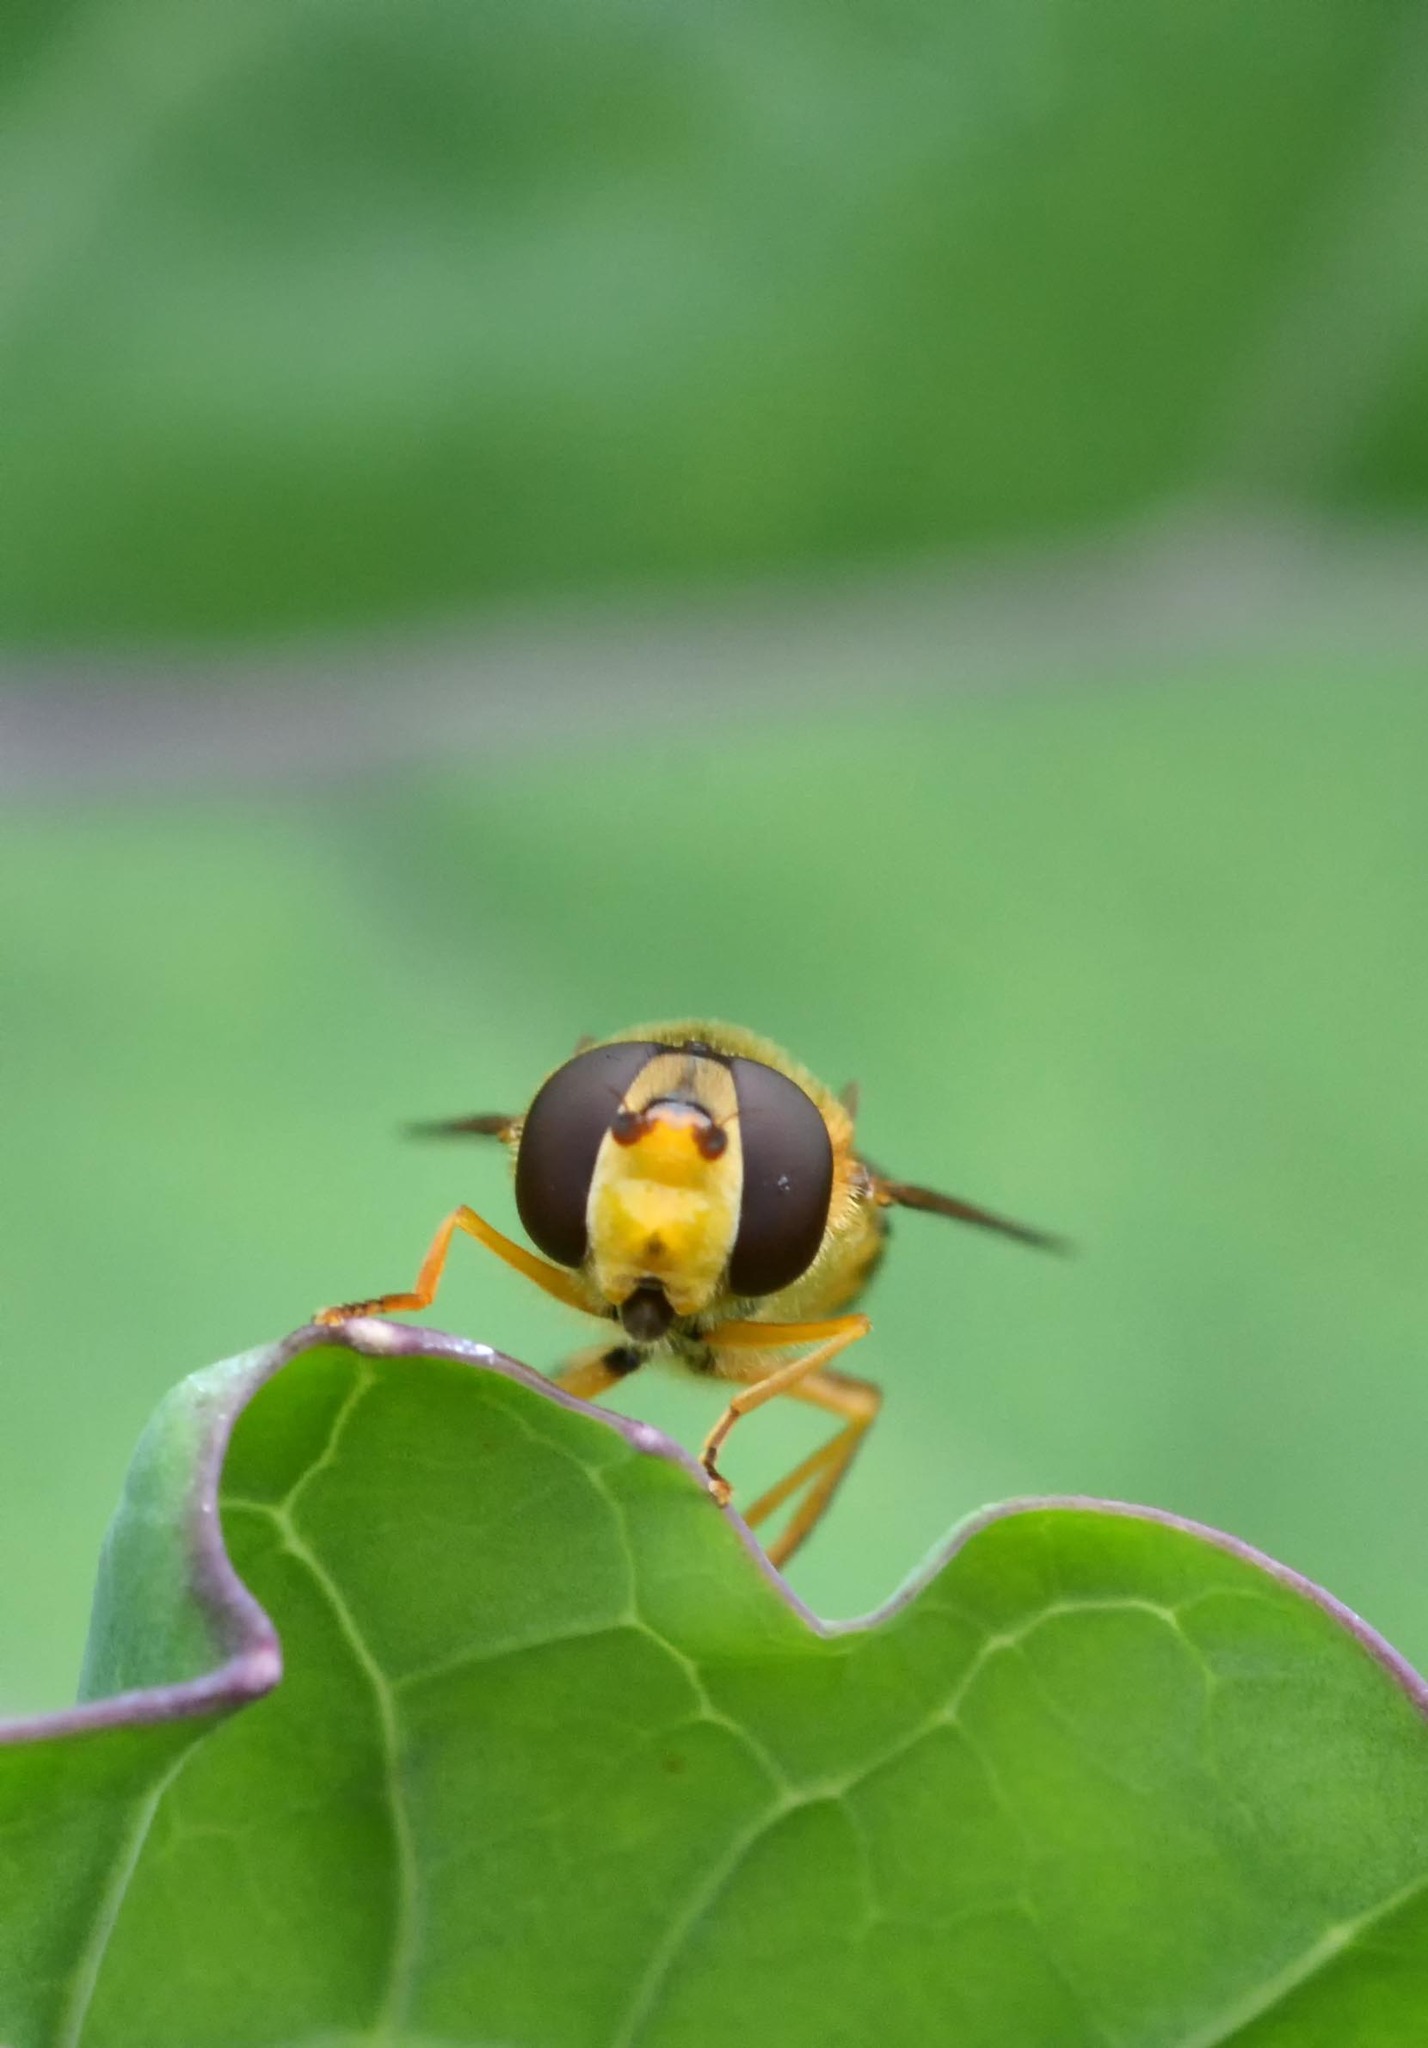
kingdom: Animalia
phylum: Arthropoda
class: Insecta
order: Diptera
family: Syrphidae
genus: Syrphus
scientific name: Syrphus ribesii
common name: Common flower fly
